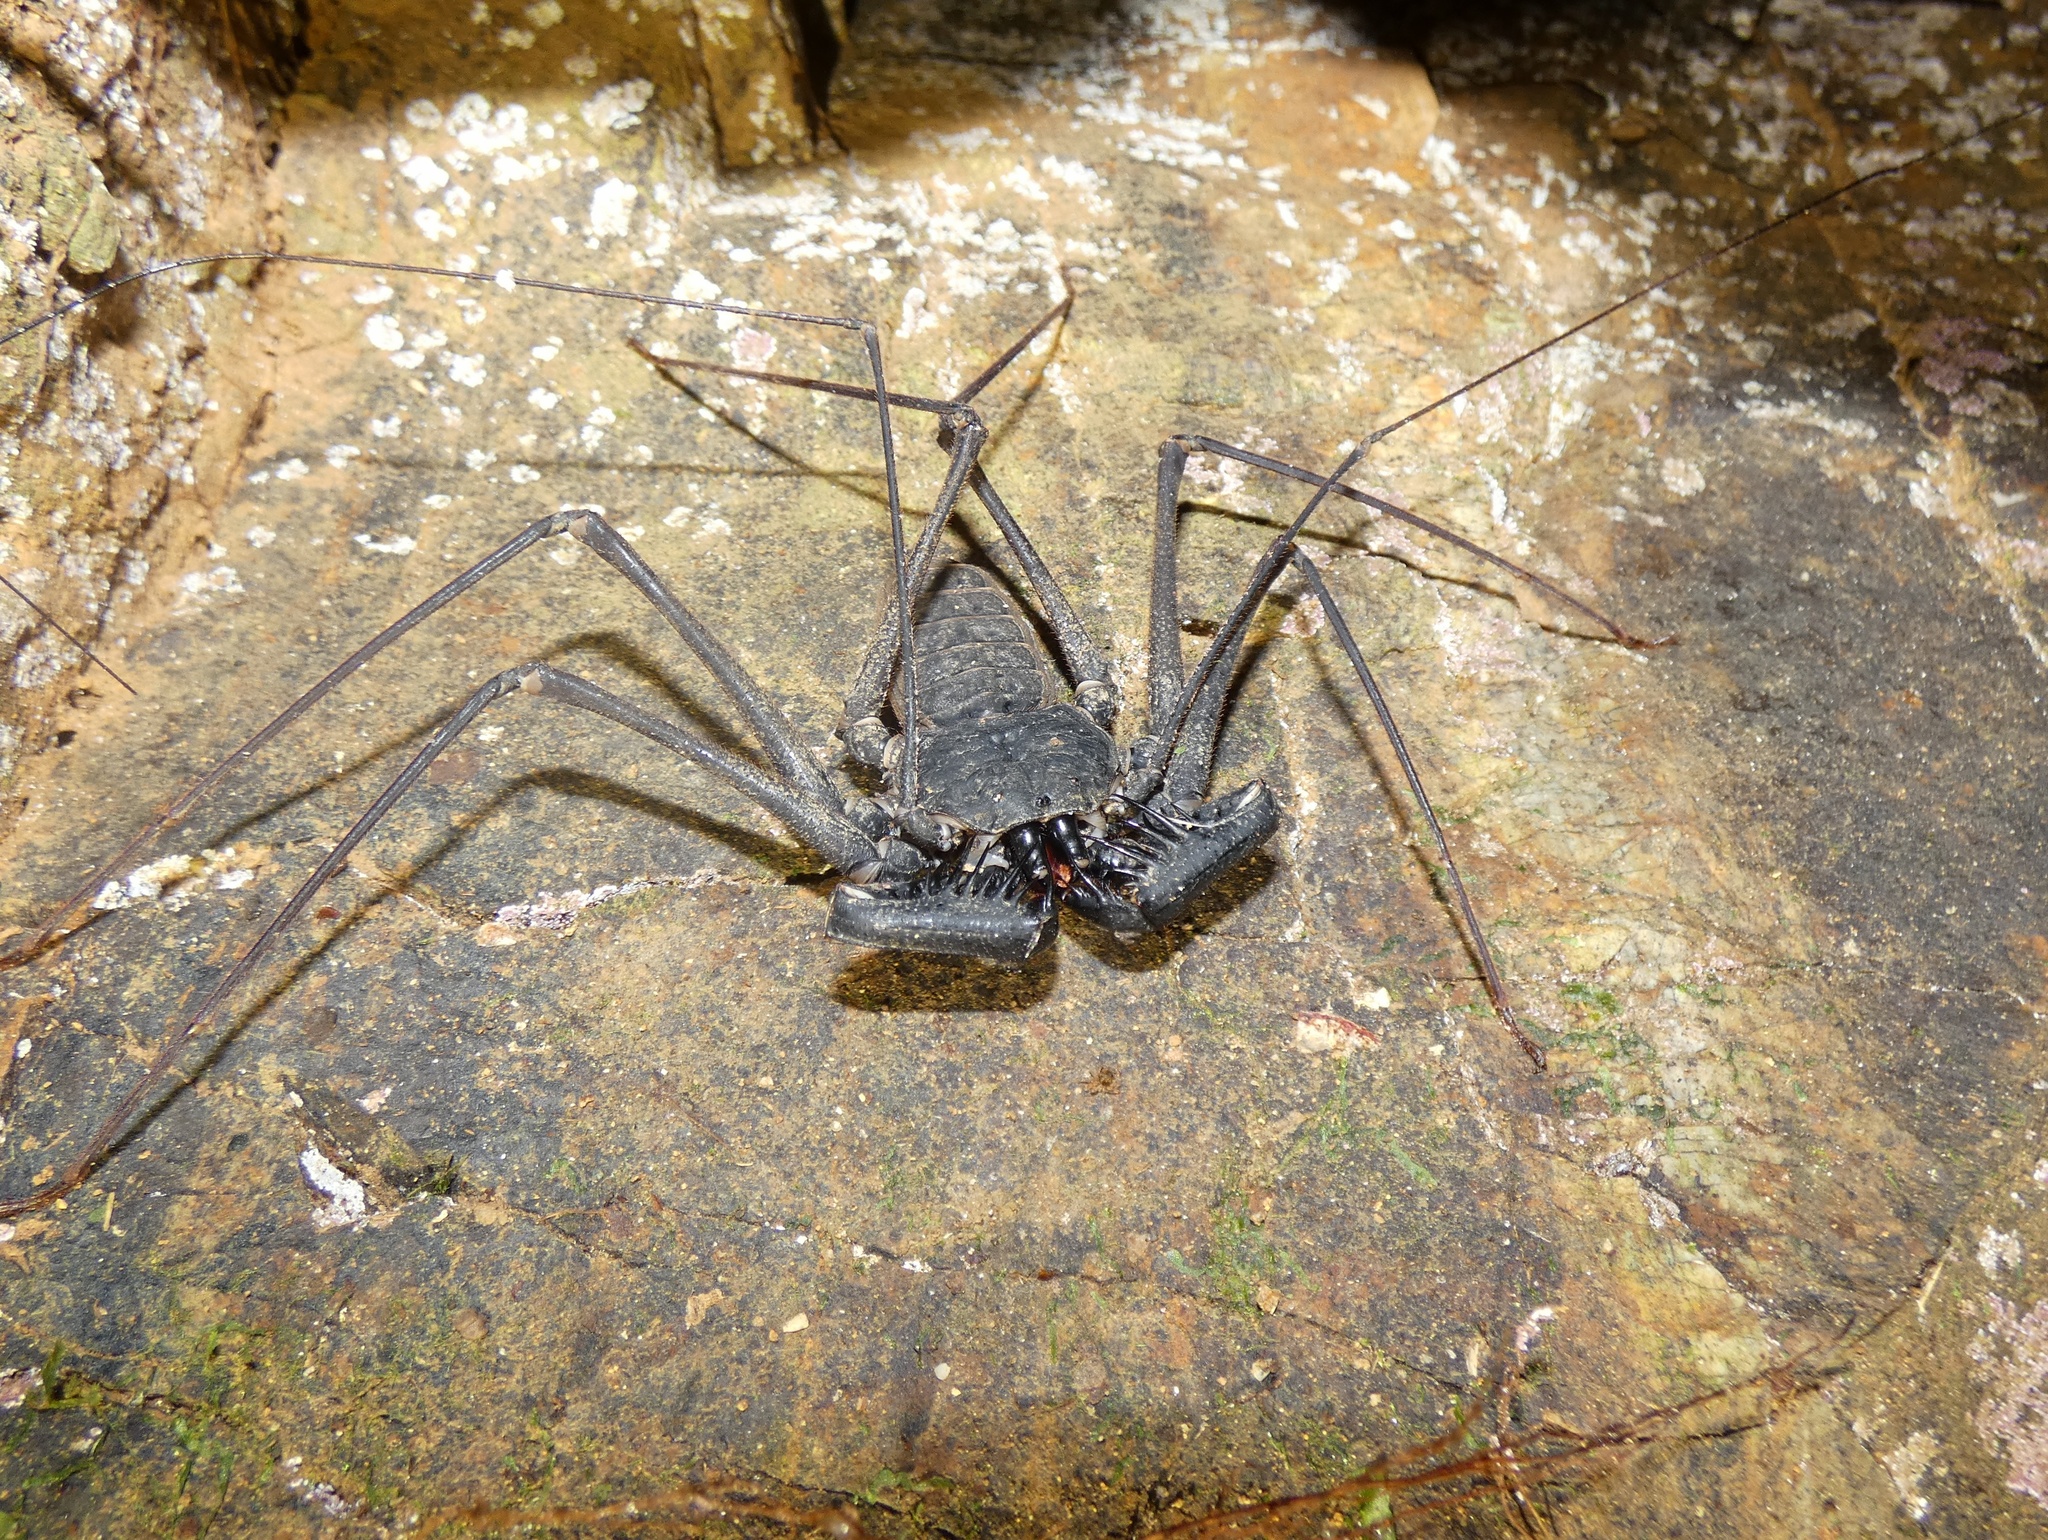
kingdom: Animalia
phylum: Arthropoda
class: Arachnida
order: Amblypygi
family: Phrynidae
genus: Paraphrynus
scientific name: Paraphrynus laevifrons
